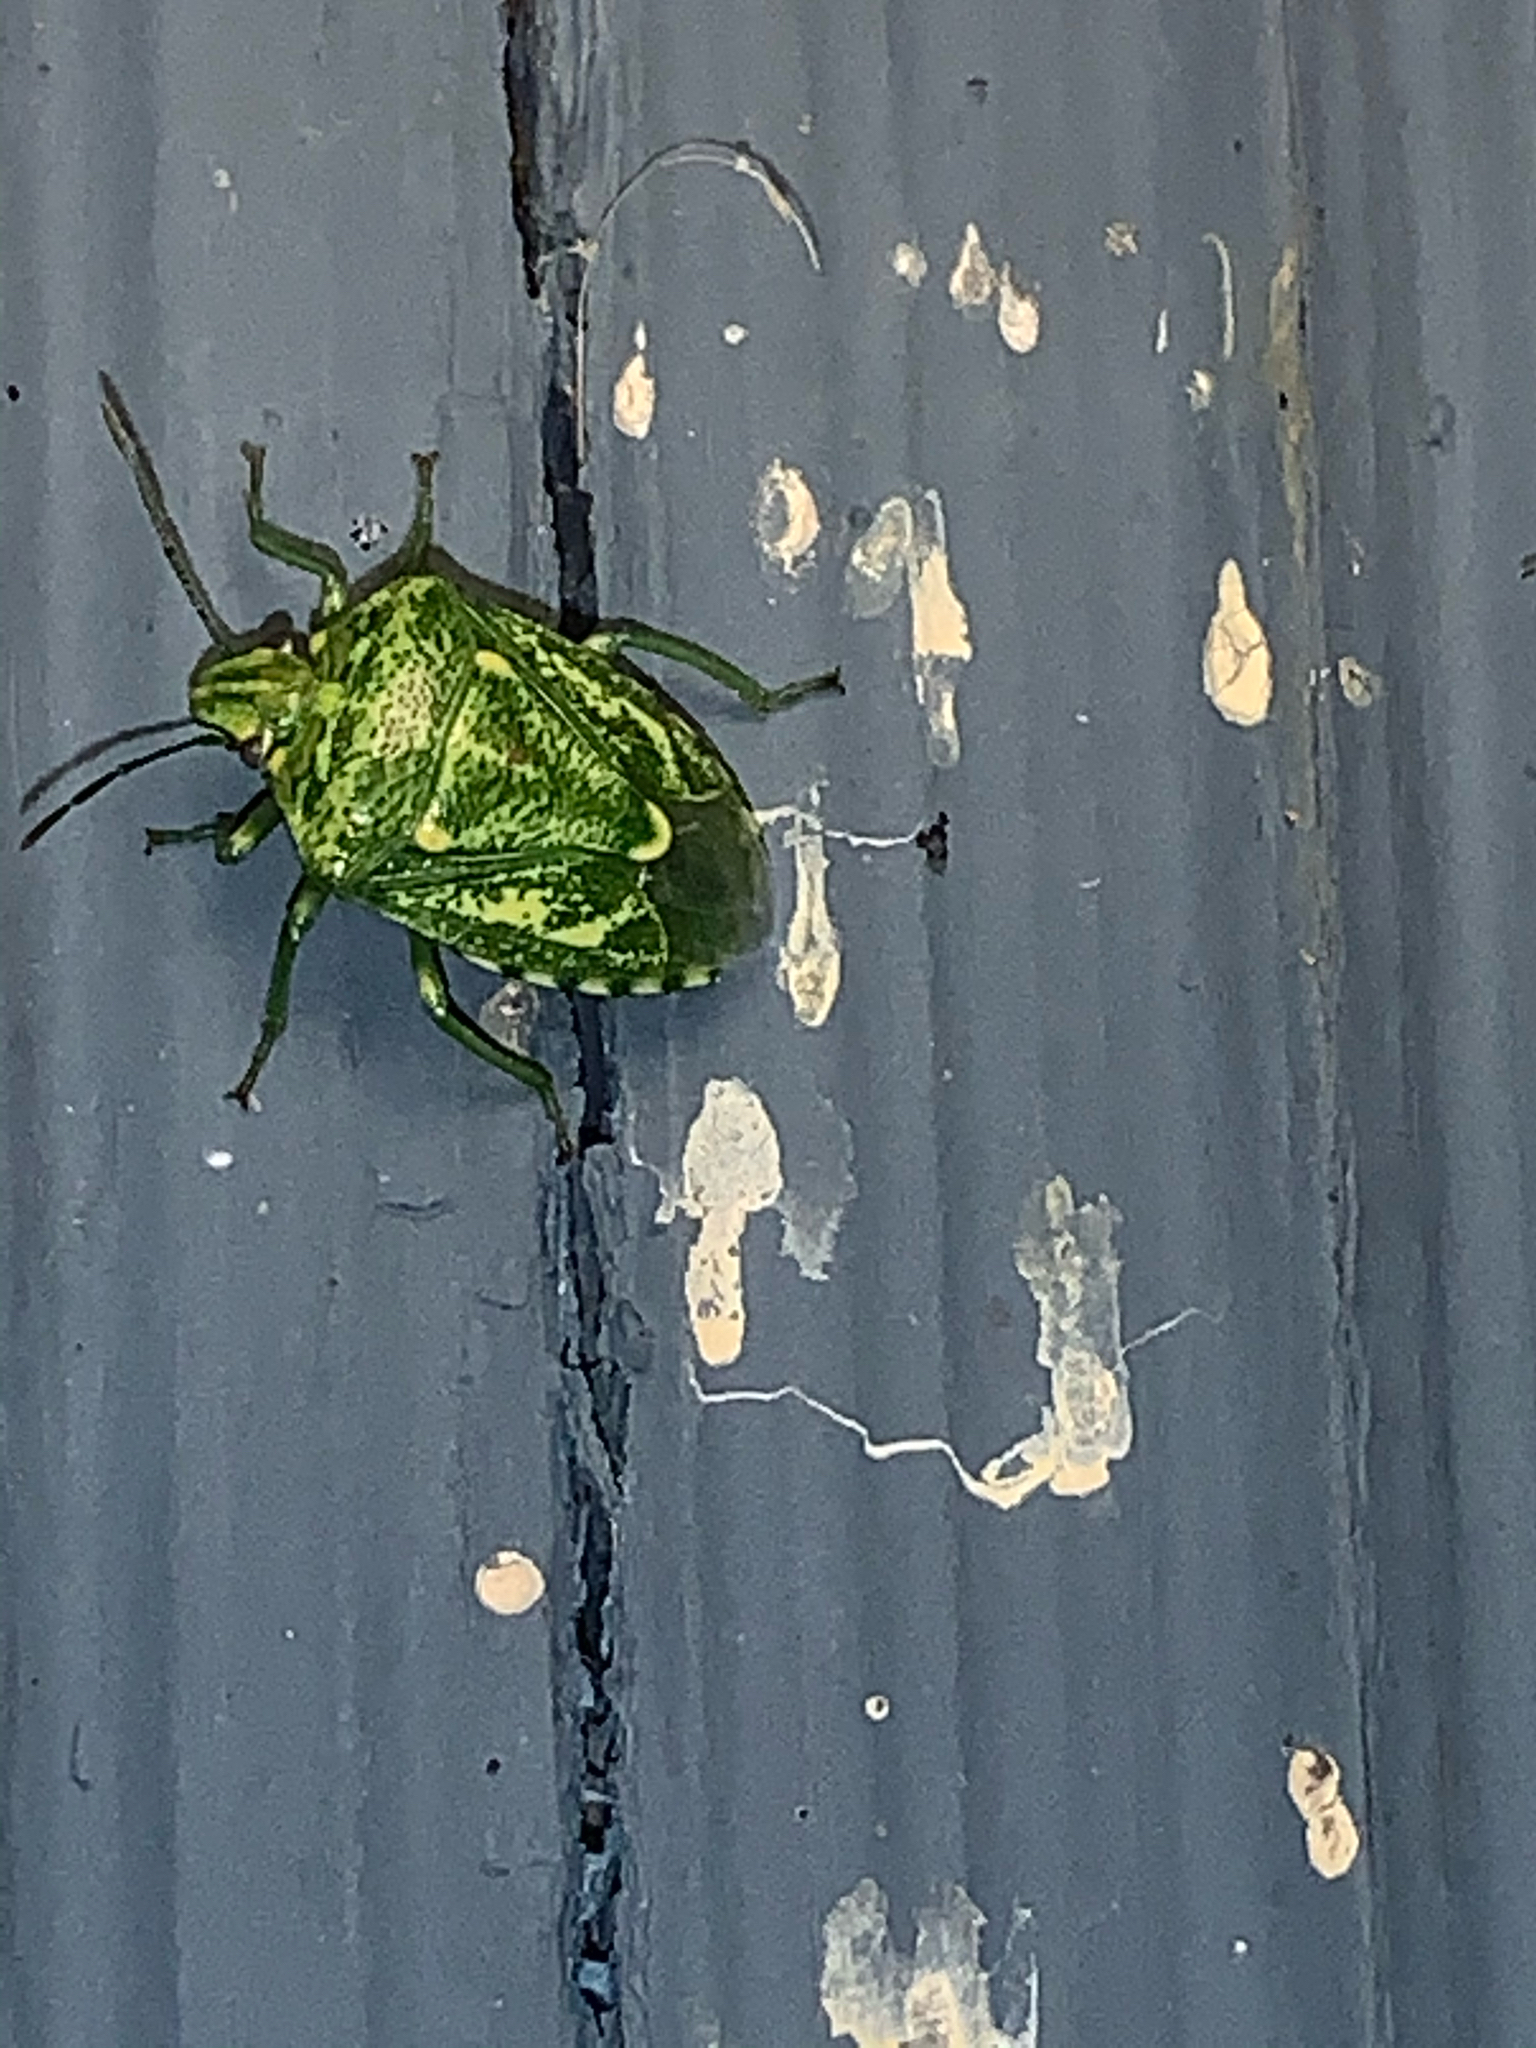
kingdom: Animalia
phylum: Arthropoda
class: Insecta
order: Hemiptera
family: Pentatomidae
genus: Banasa
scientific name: Banasa euchlora
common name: Cedar berry bug
